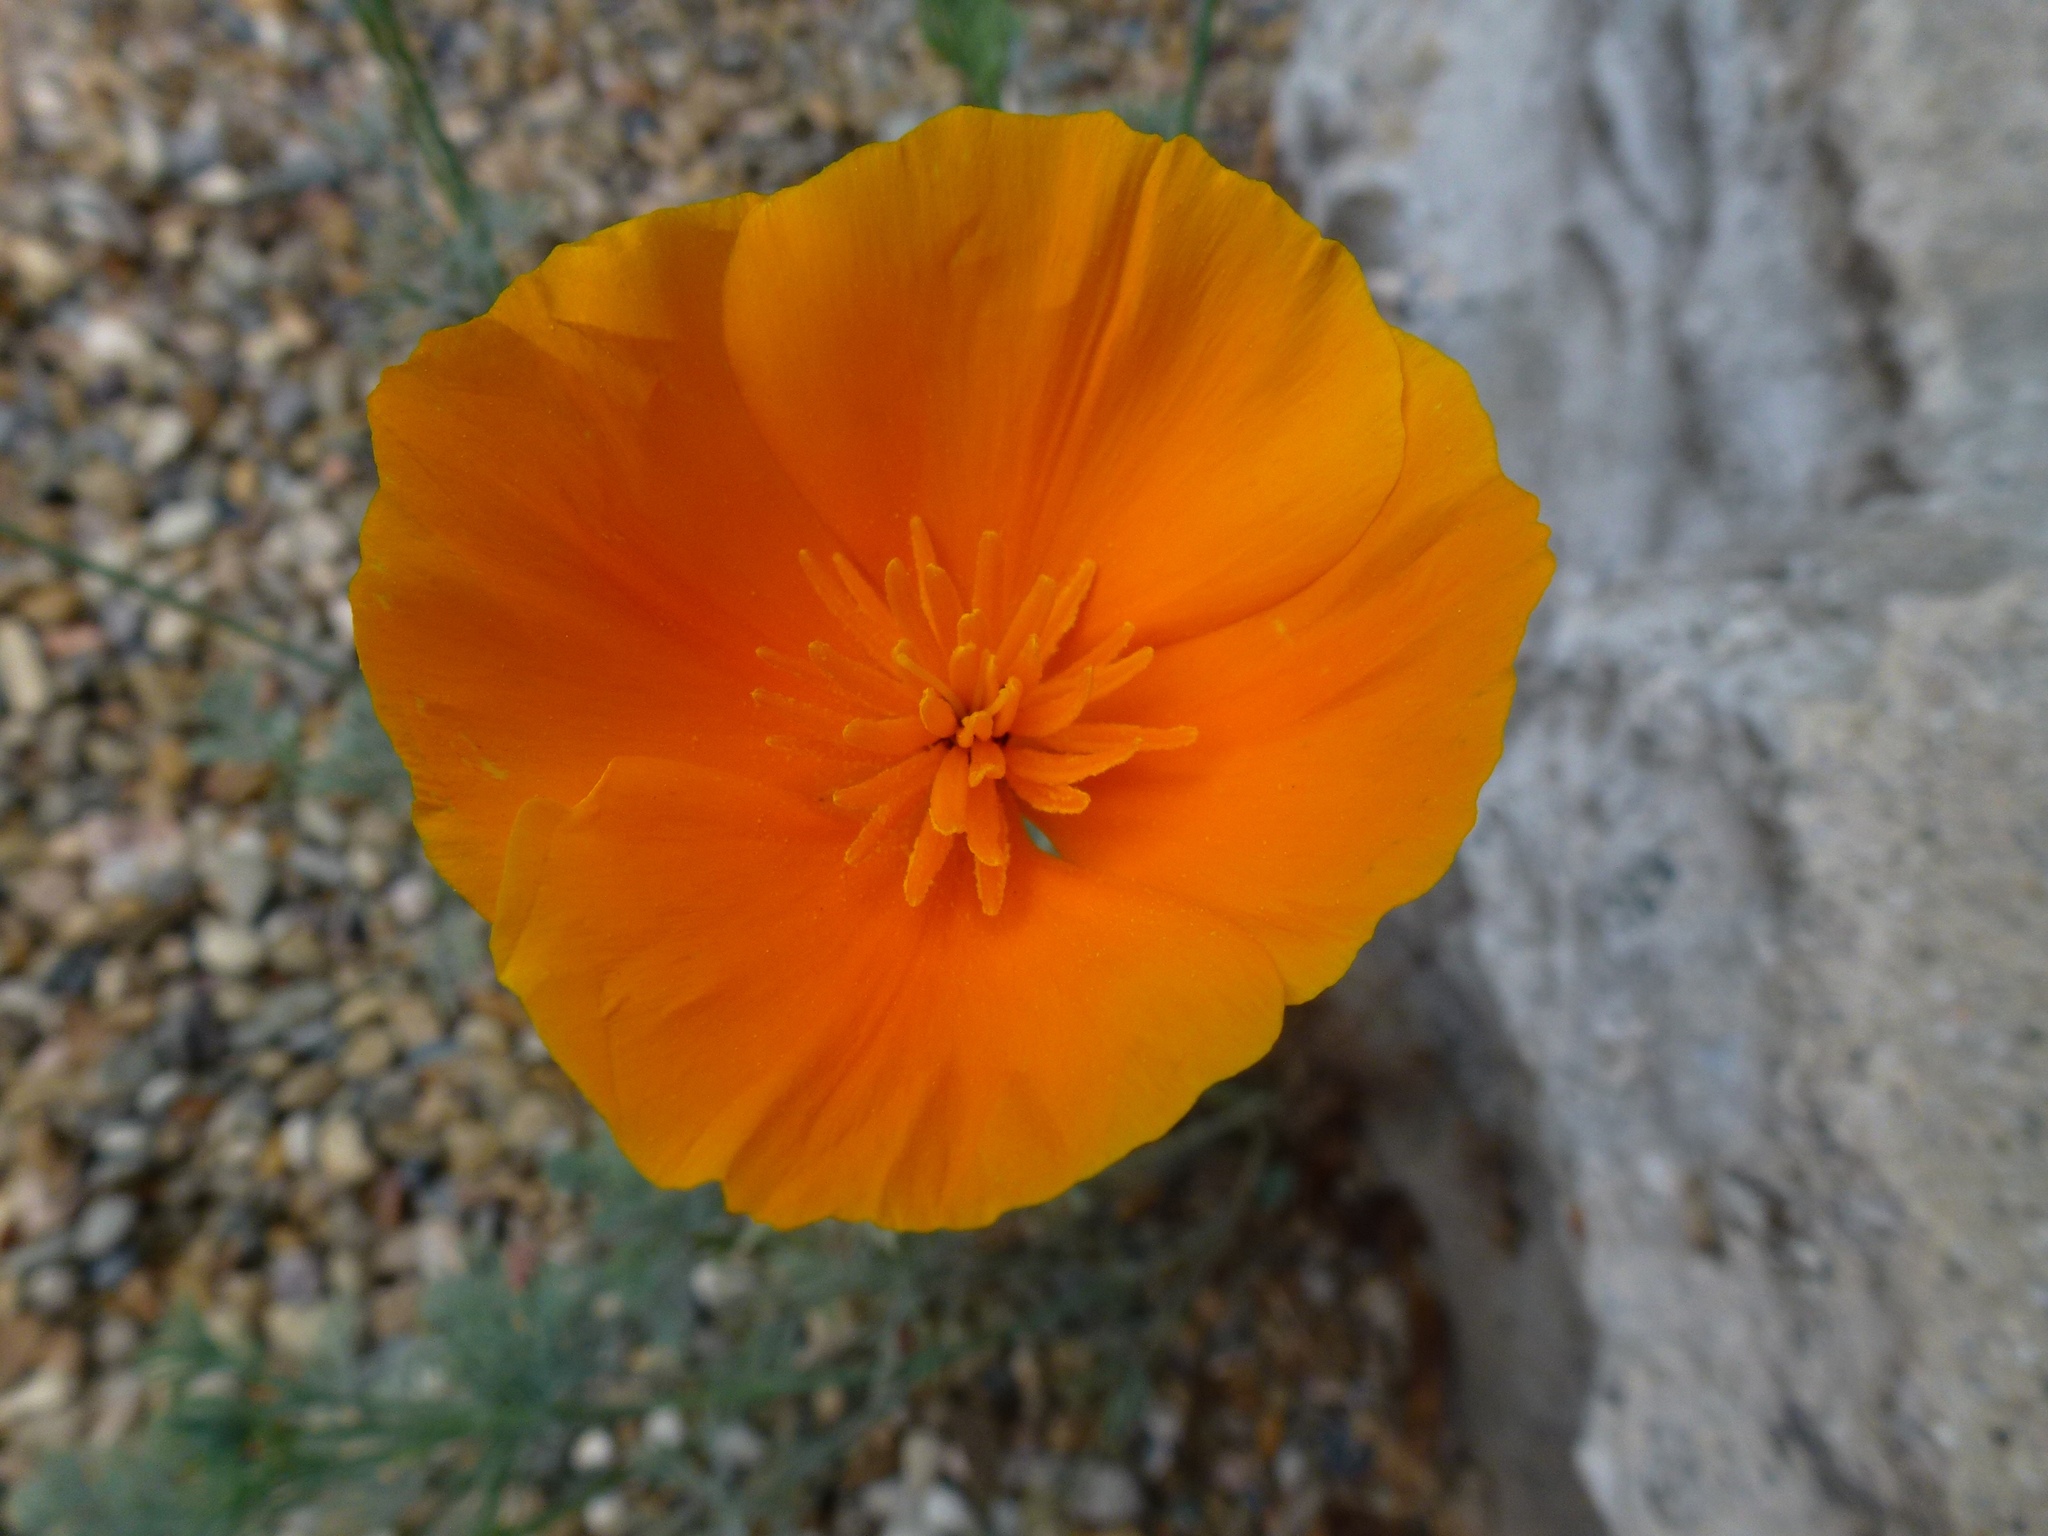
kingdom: Plantae
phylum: Tracheophyta
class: Magnoliopsida
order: Ranunculales
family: Papaveraceae
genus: Eschscholzia
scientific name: Eschscholzia californica
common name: California poppy
